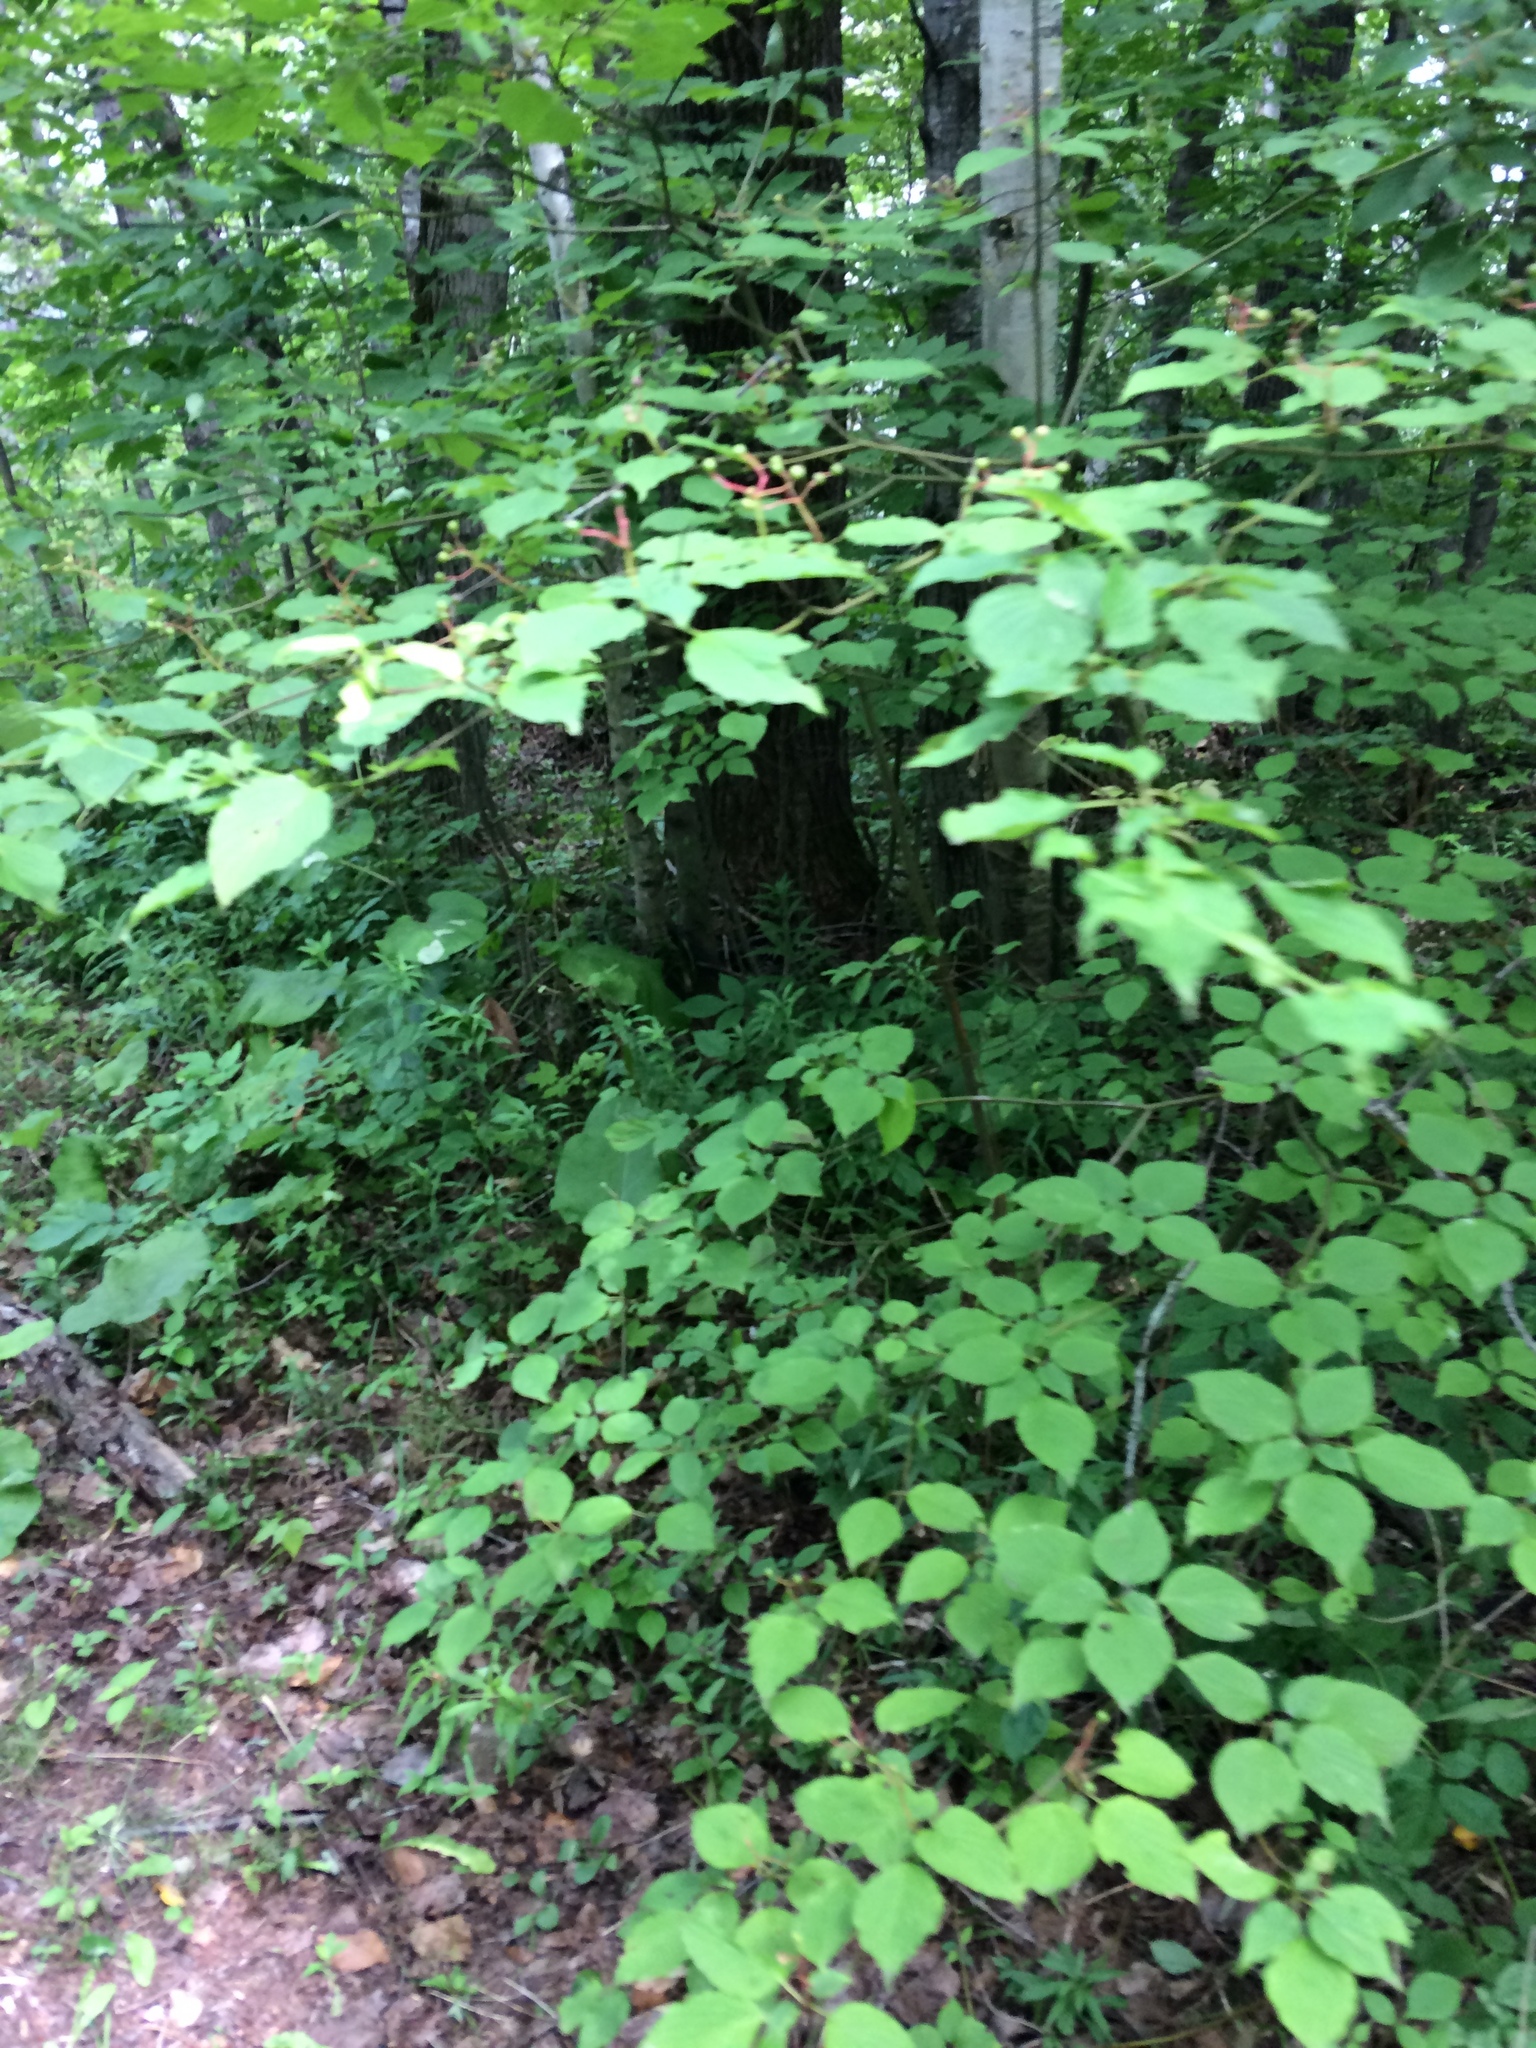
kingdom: Plantae
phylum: Tracheophyta
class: Magnoliopsida
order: Cornales
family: Cornaceae
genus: Cornus
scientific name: Cornus alternifolia
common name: Pagoda dogwood
